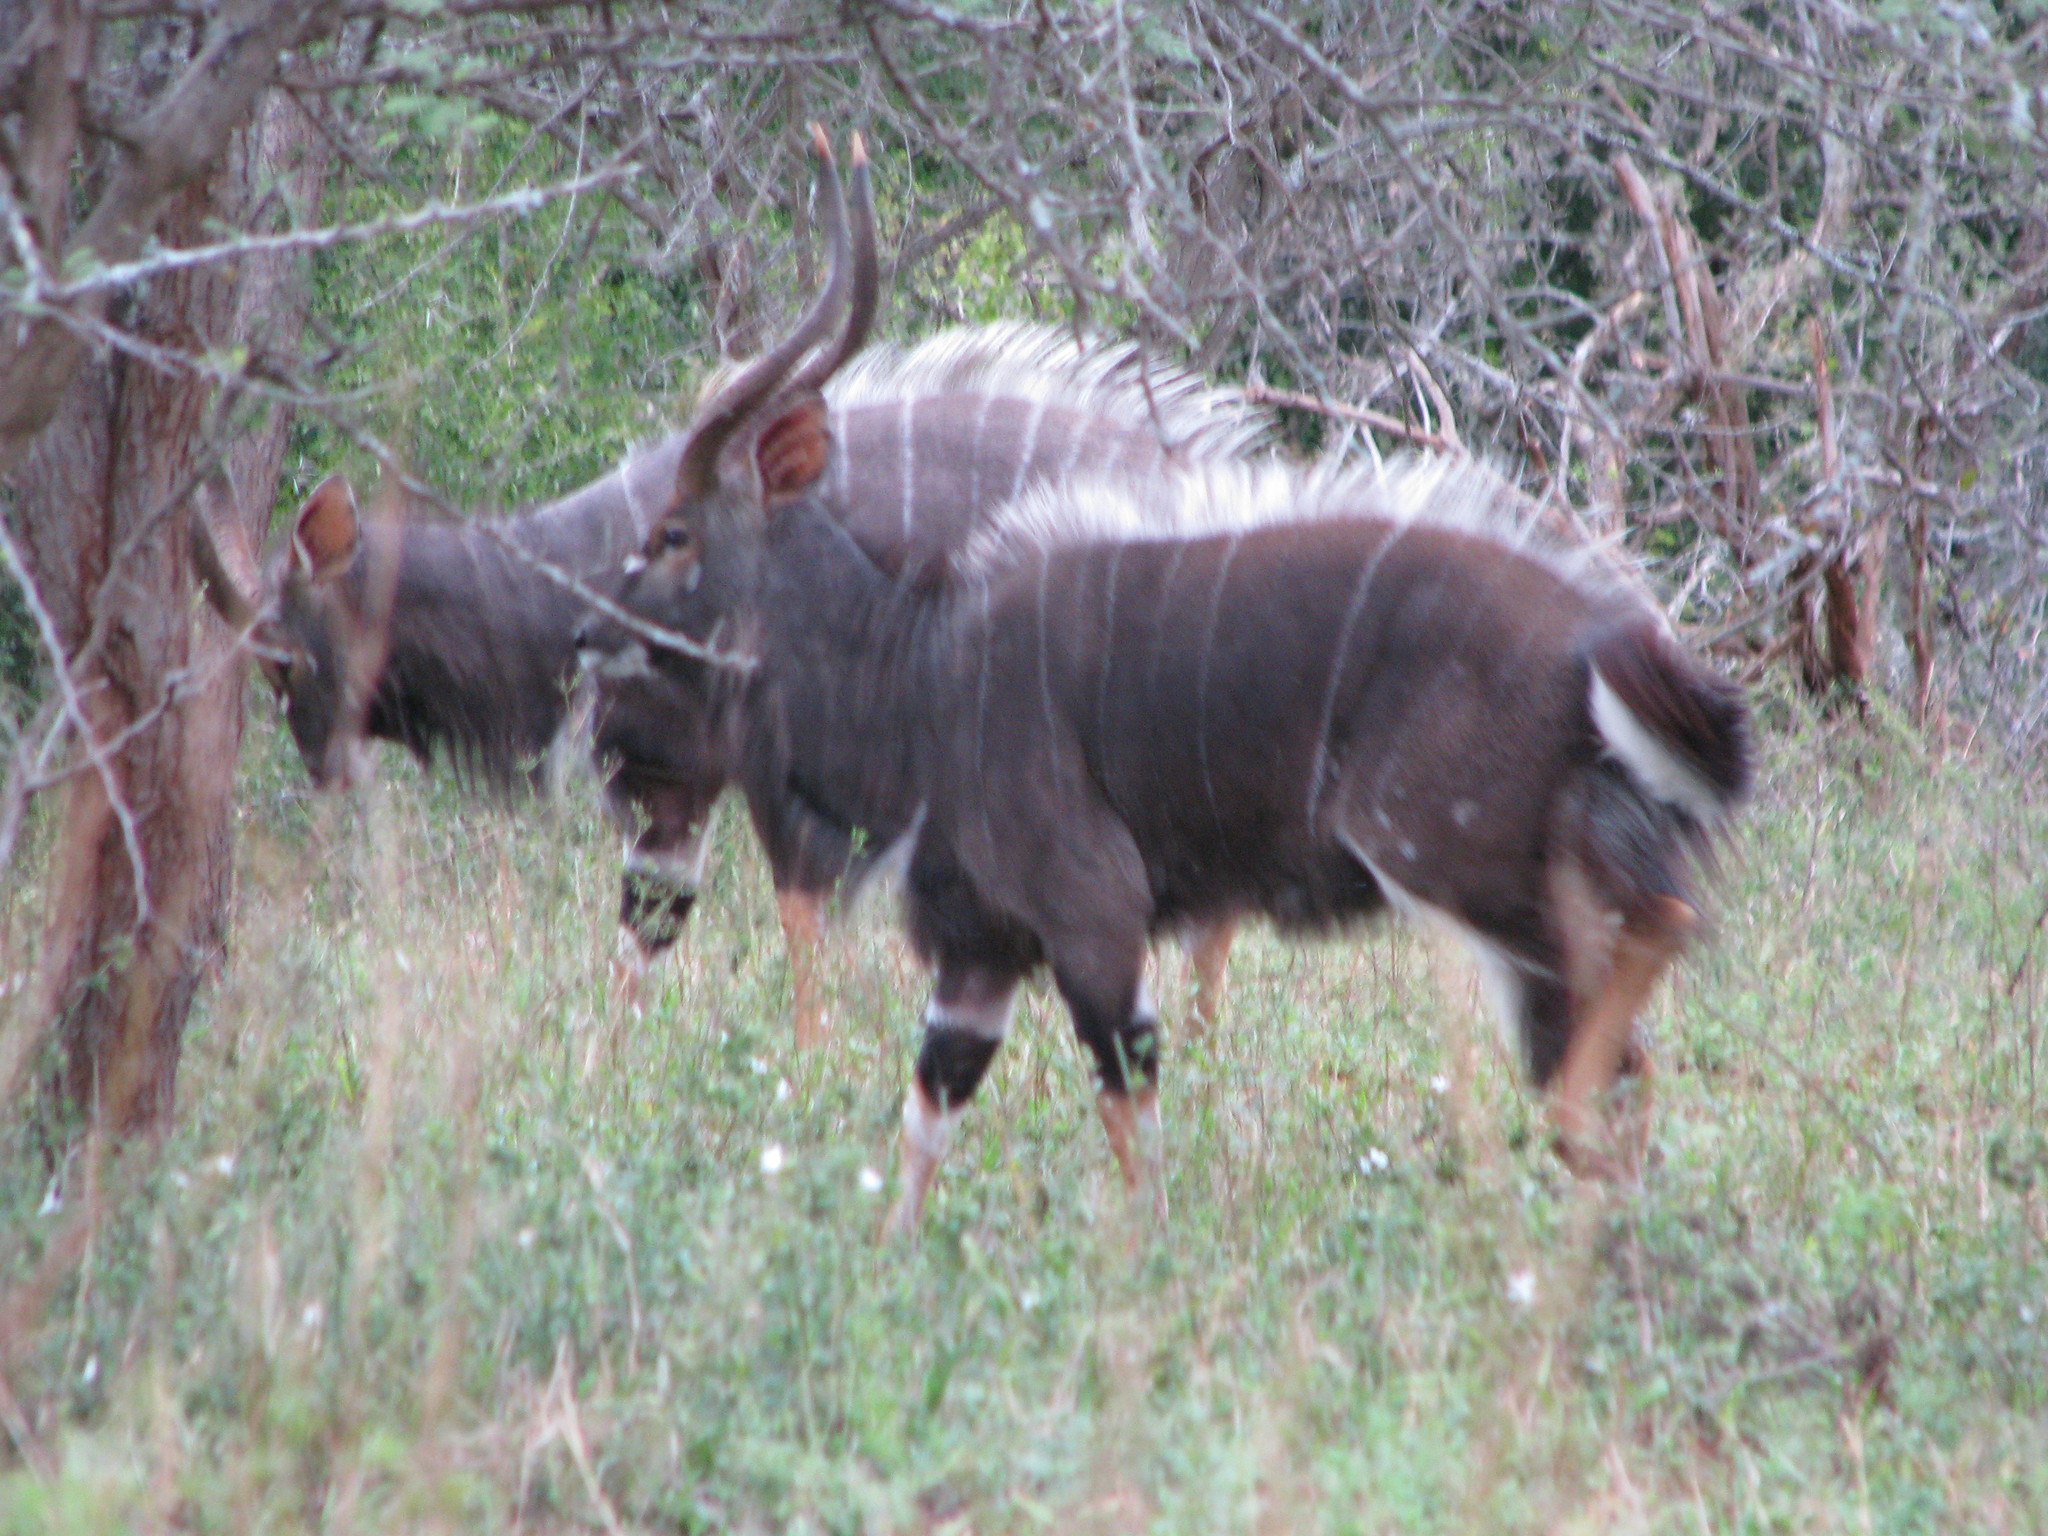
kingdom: Animalia
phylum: Chordata
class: Mammalia
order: Artiodactyla
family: Bovidae
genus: Tragelaphus
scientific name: Tragelaphus angasii
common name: Nyala
